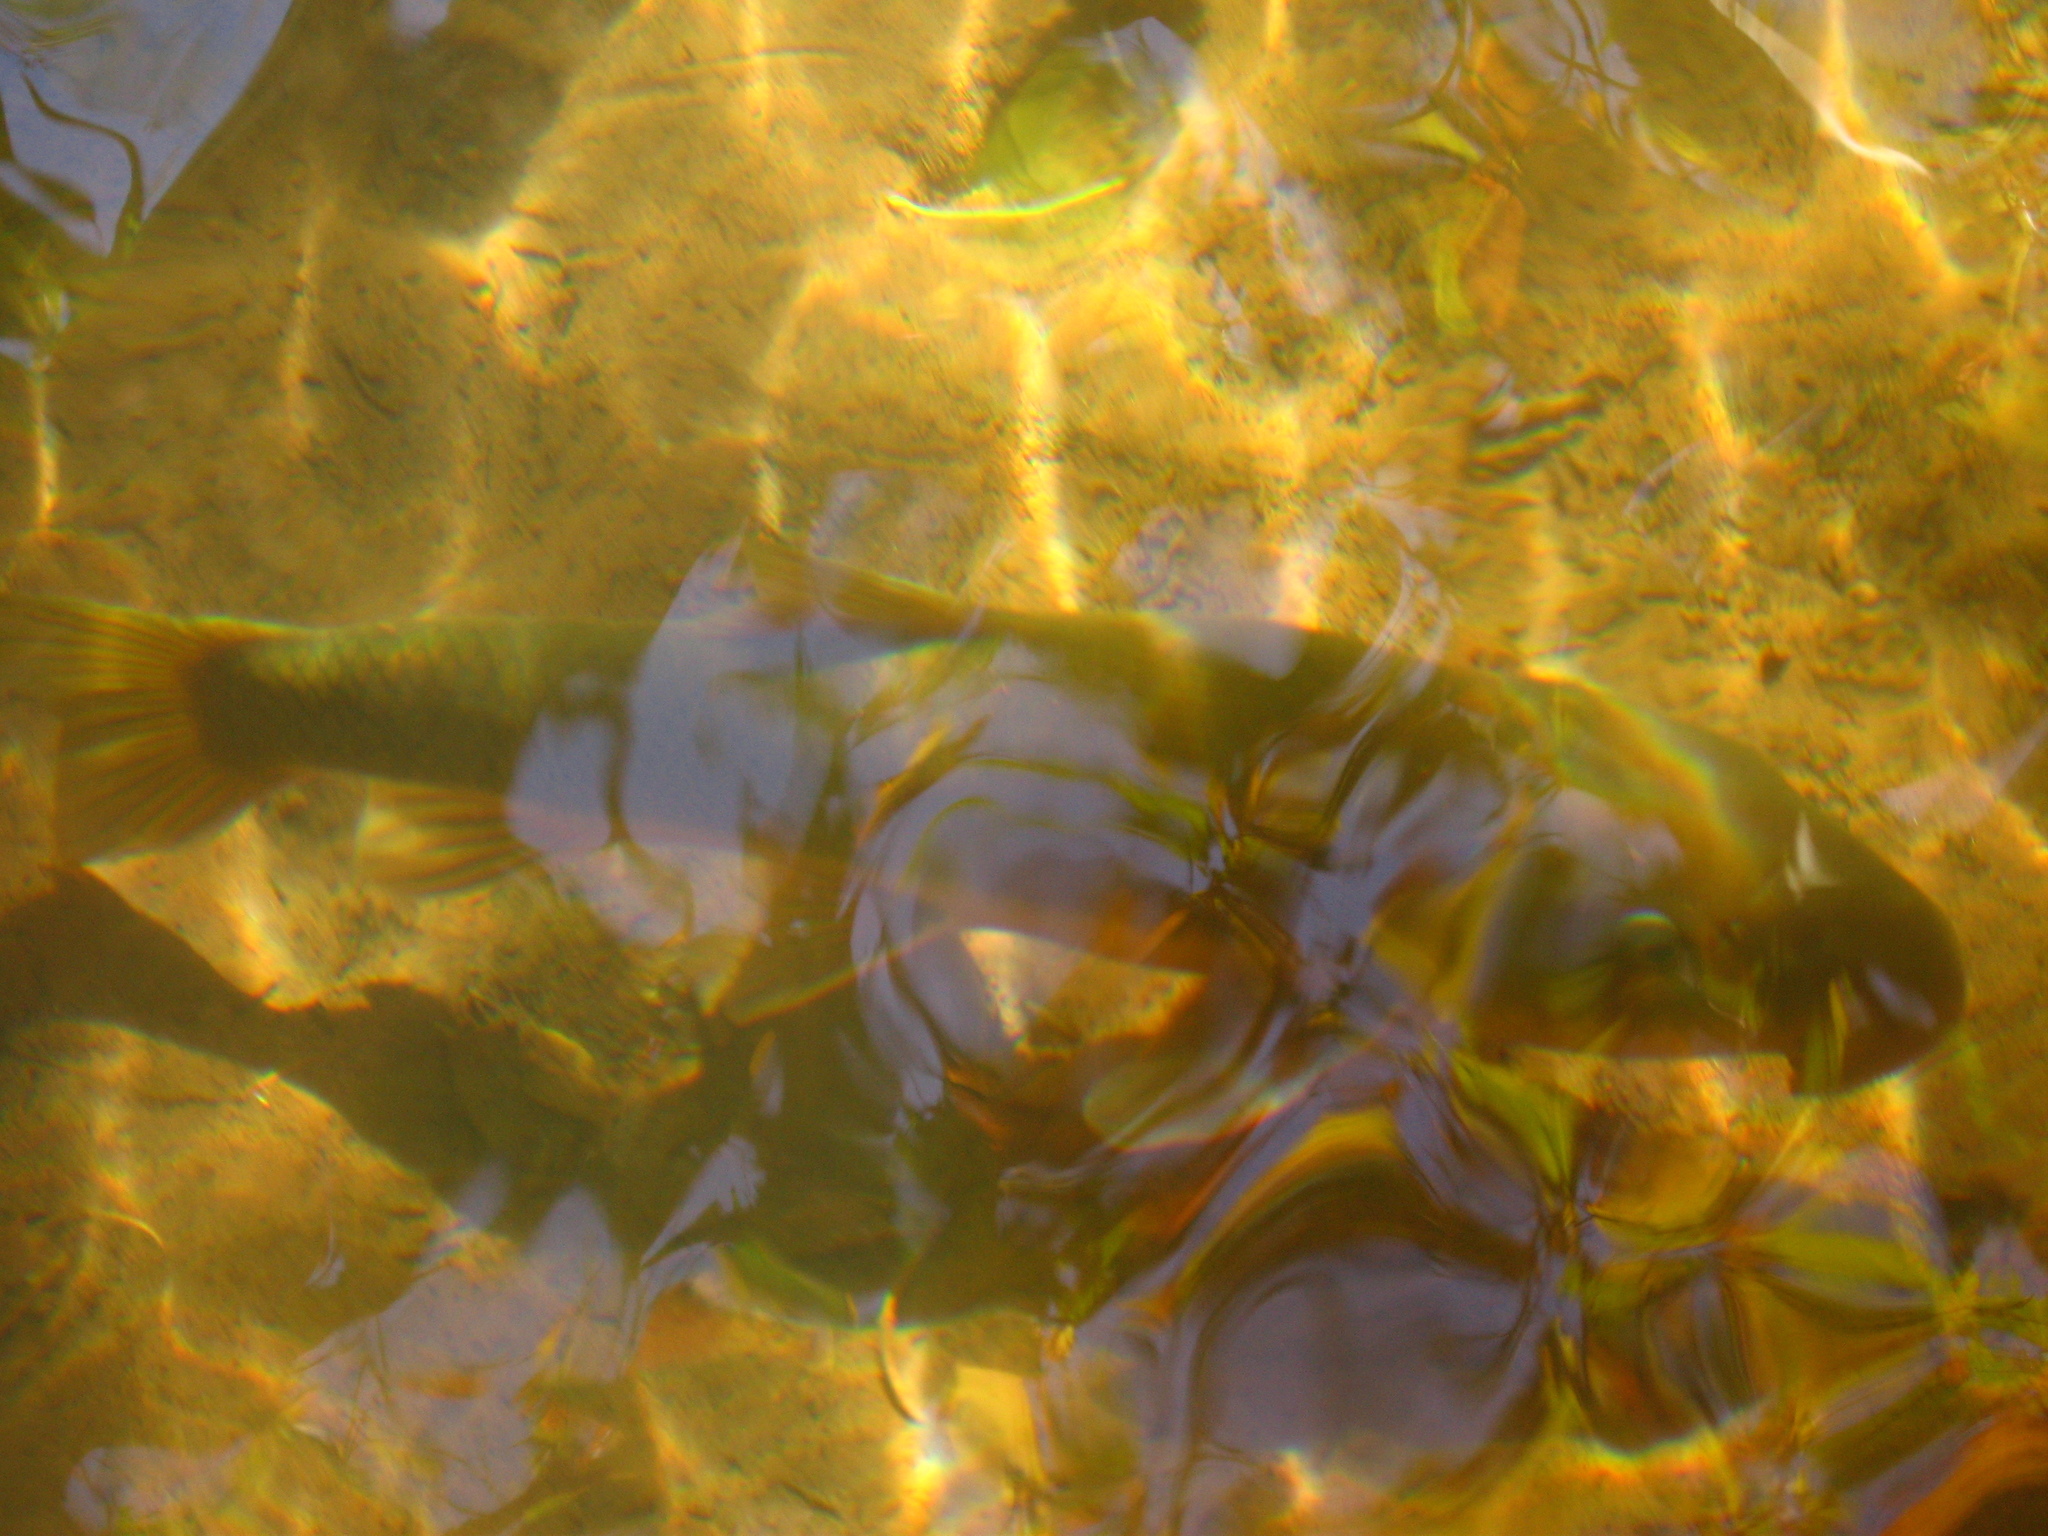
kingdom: Animalia
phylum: Chordata
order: Cypriniformes
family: Catostomidae
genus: Catostomus
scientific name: Catostomus insignis
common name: Sonora sucker
